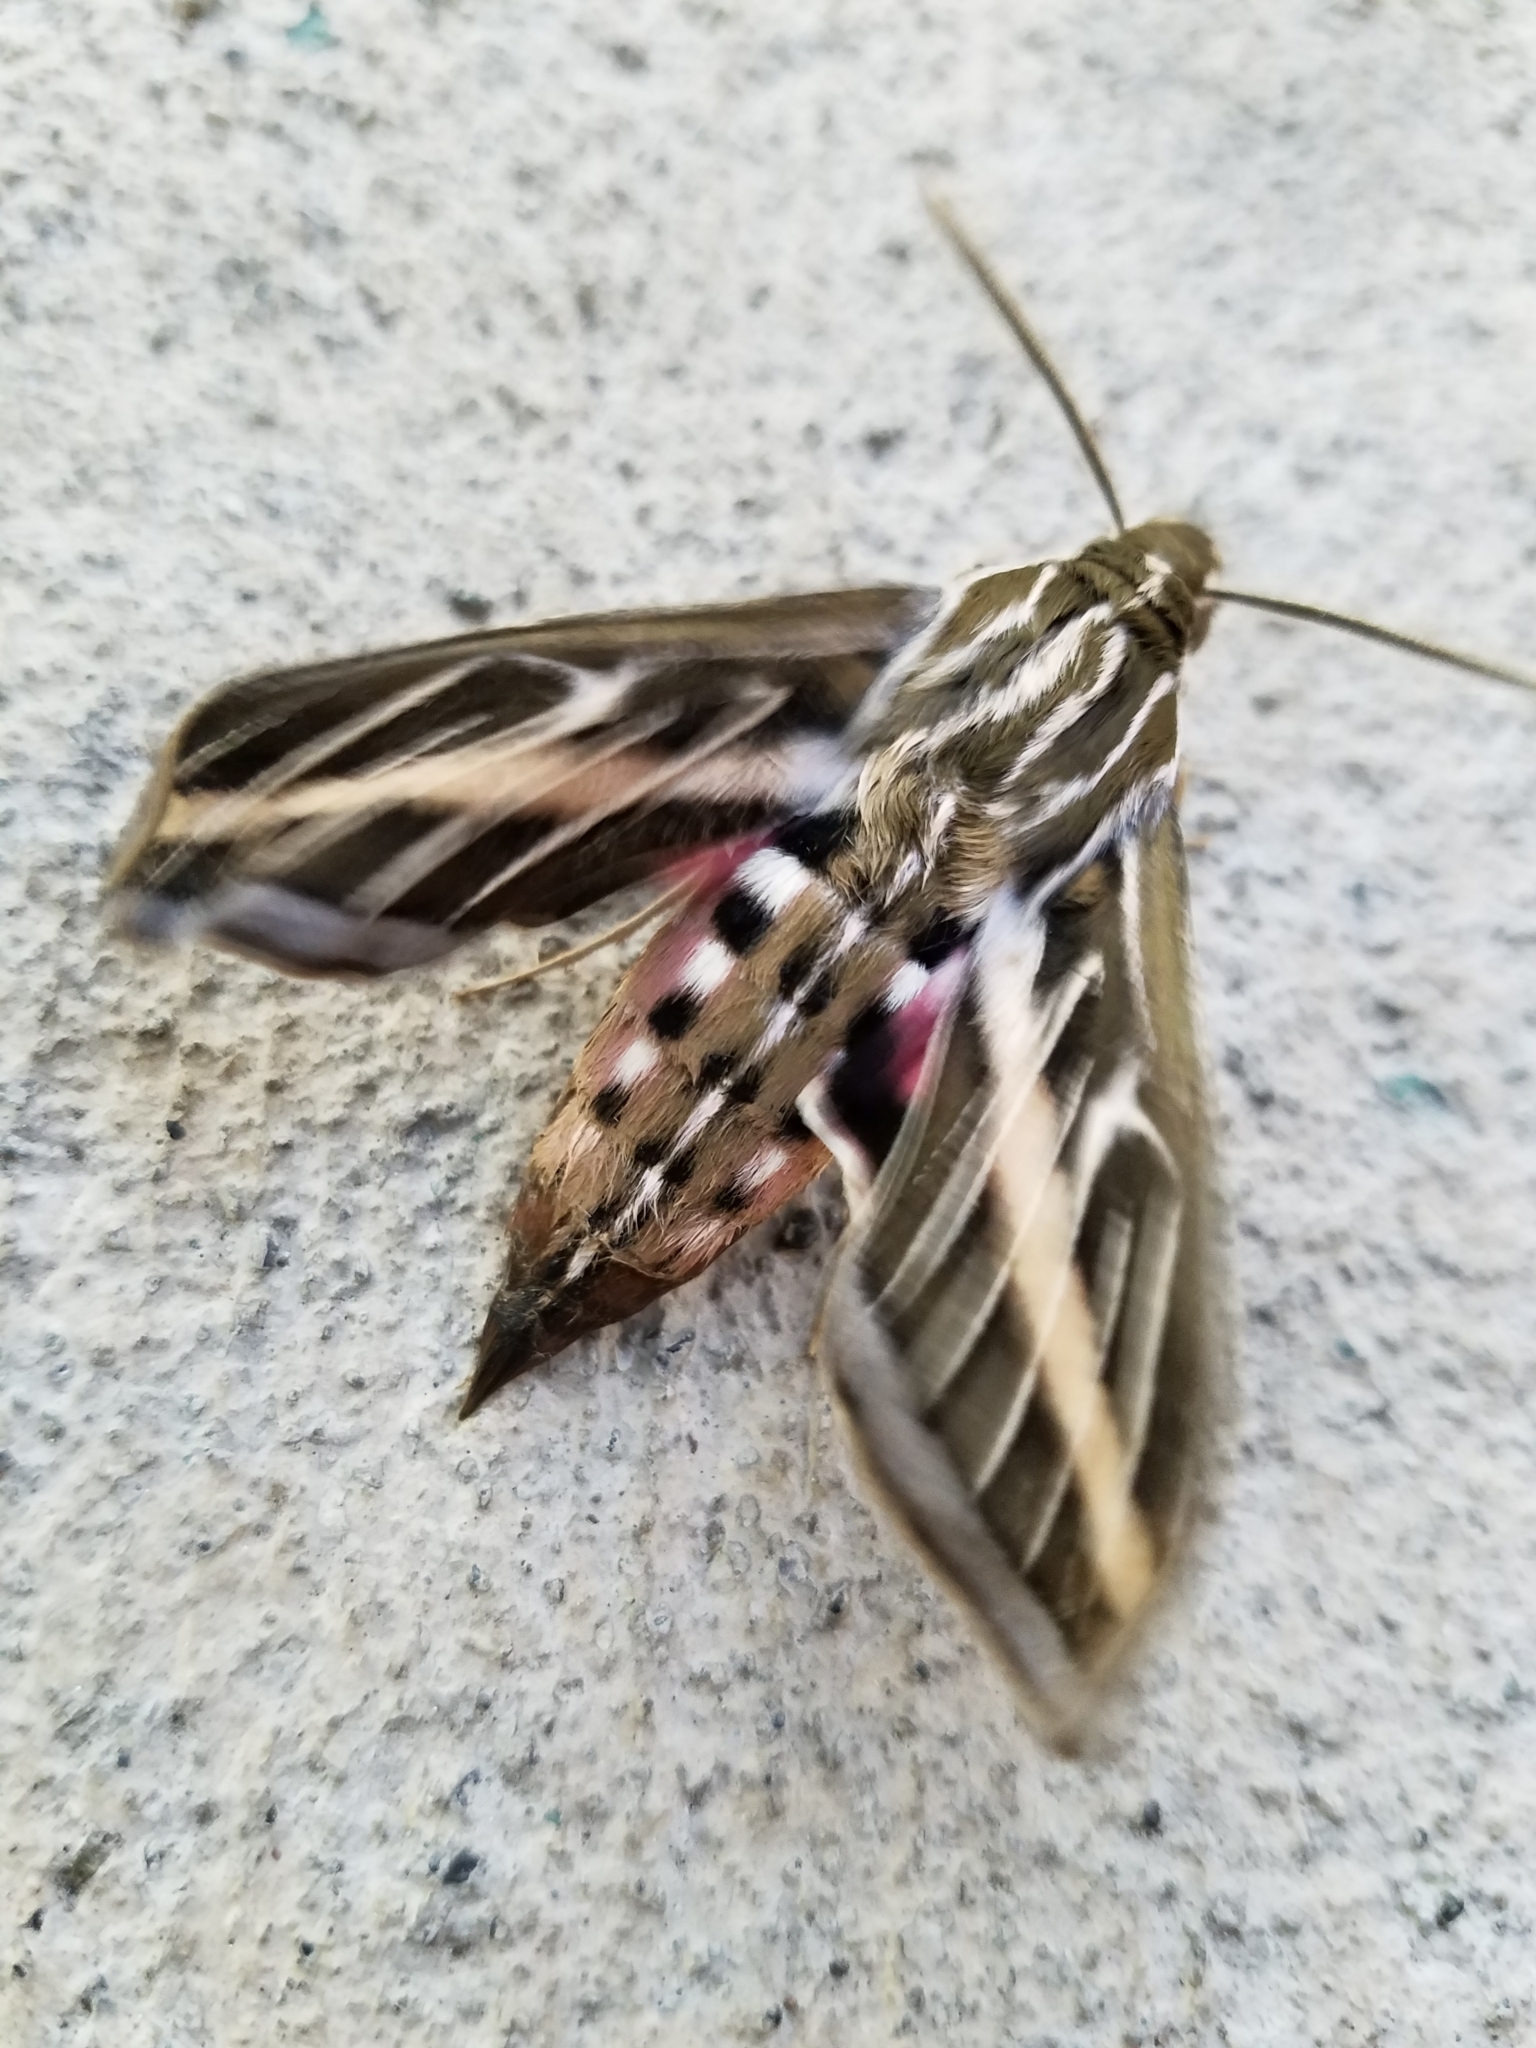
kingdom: Animalia
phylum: Arthropoda
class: Insecta
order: Lepidoptera
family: Sphingidae
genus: Hyles
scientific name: Hyles lineata
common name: White-lined sphinx
